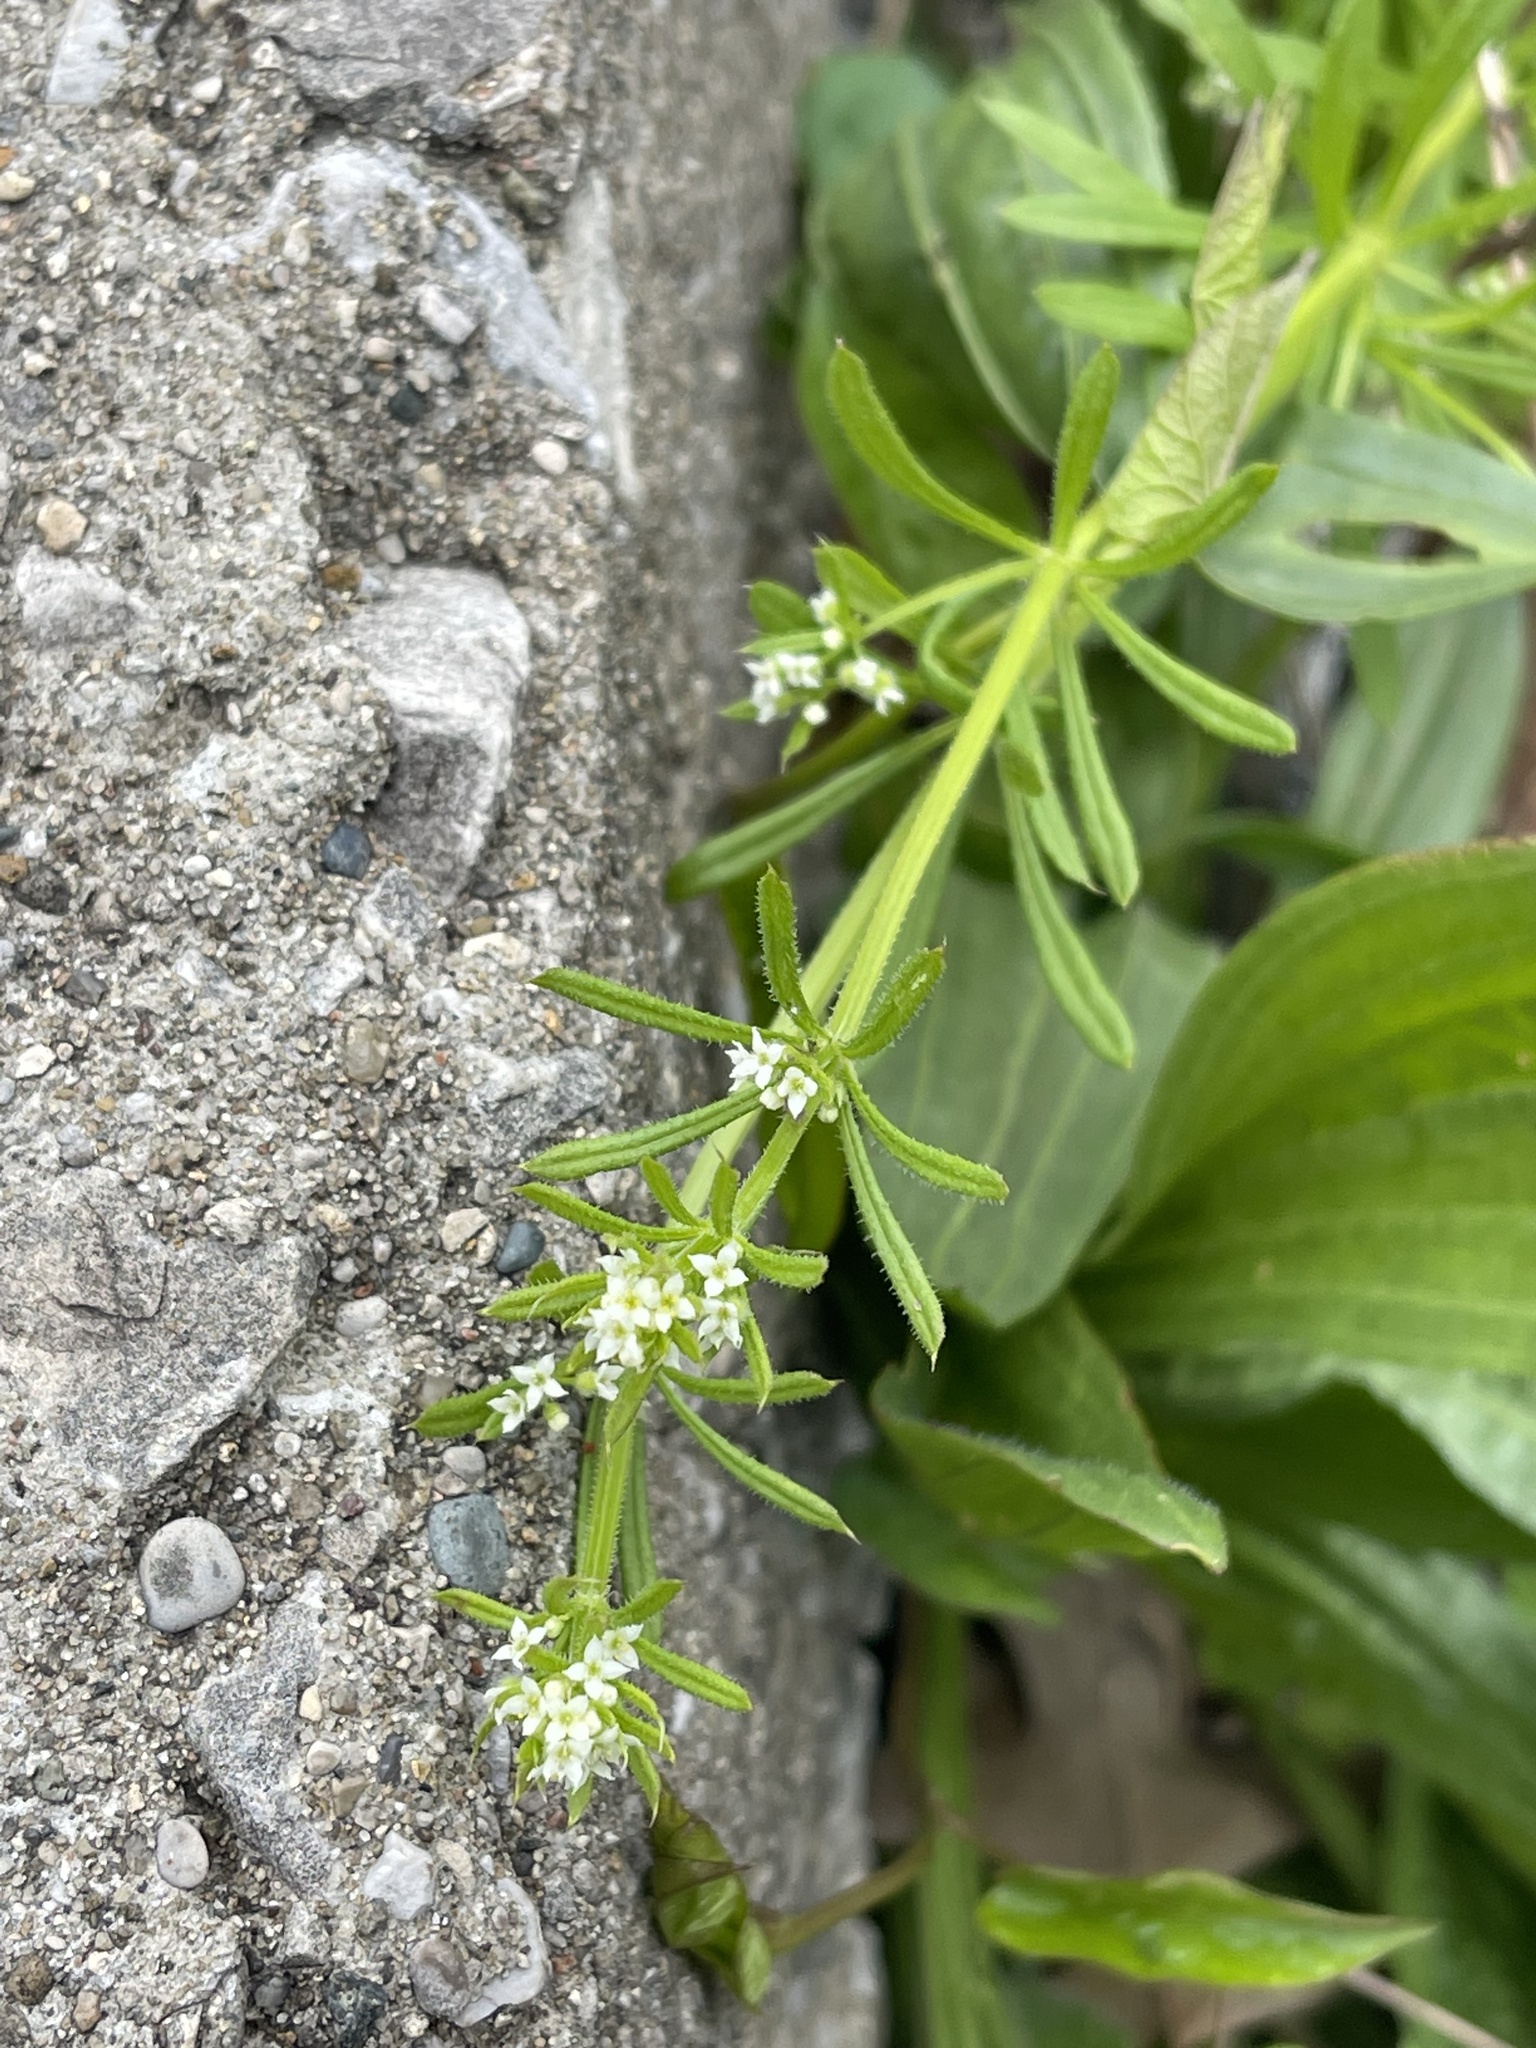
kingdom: Plantae
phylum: Tracheophyta
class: Magnoliopsida
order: Gentianales
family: Rubiaceae
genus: Galium
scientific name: Galium aparine
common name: Cleavers
